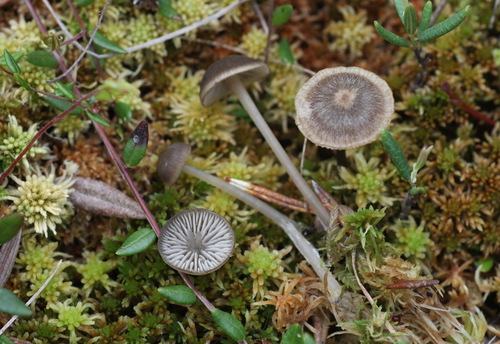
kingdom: Fungi
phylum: Basidiomycota
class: Agaricomycetes
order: Agaricales
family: Lyophyllaceae
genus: Sphagnurus
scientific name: Sphagnurus paluster
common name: Sphagnum greyling
